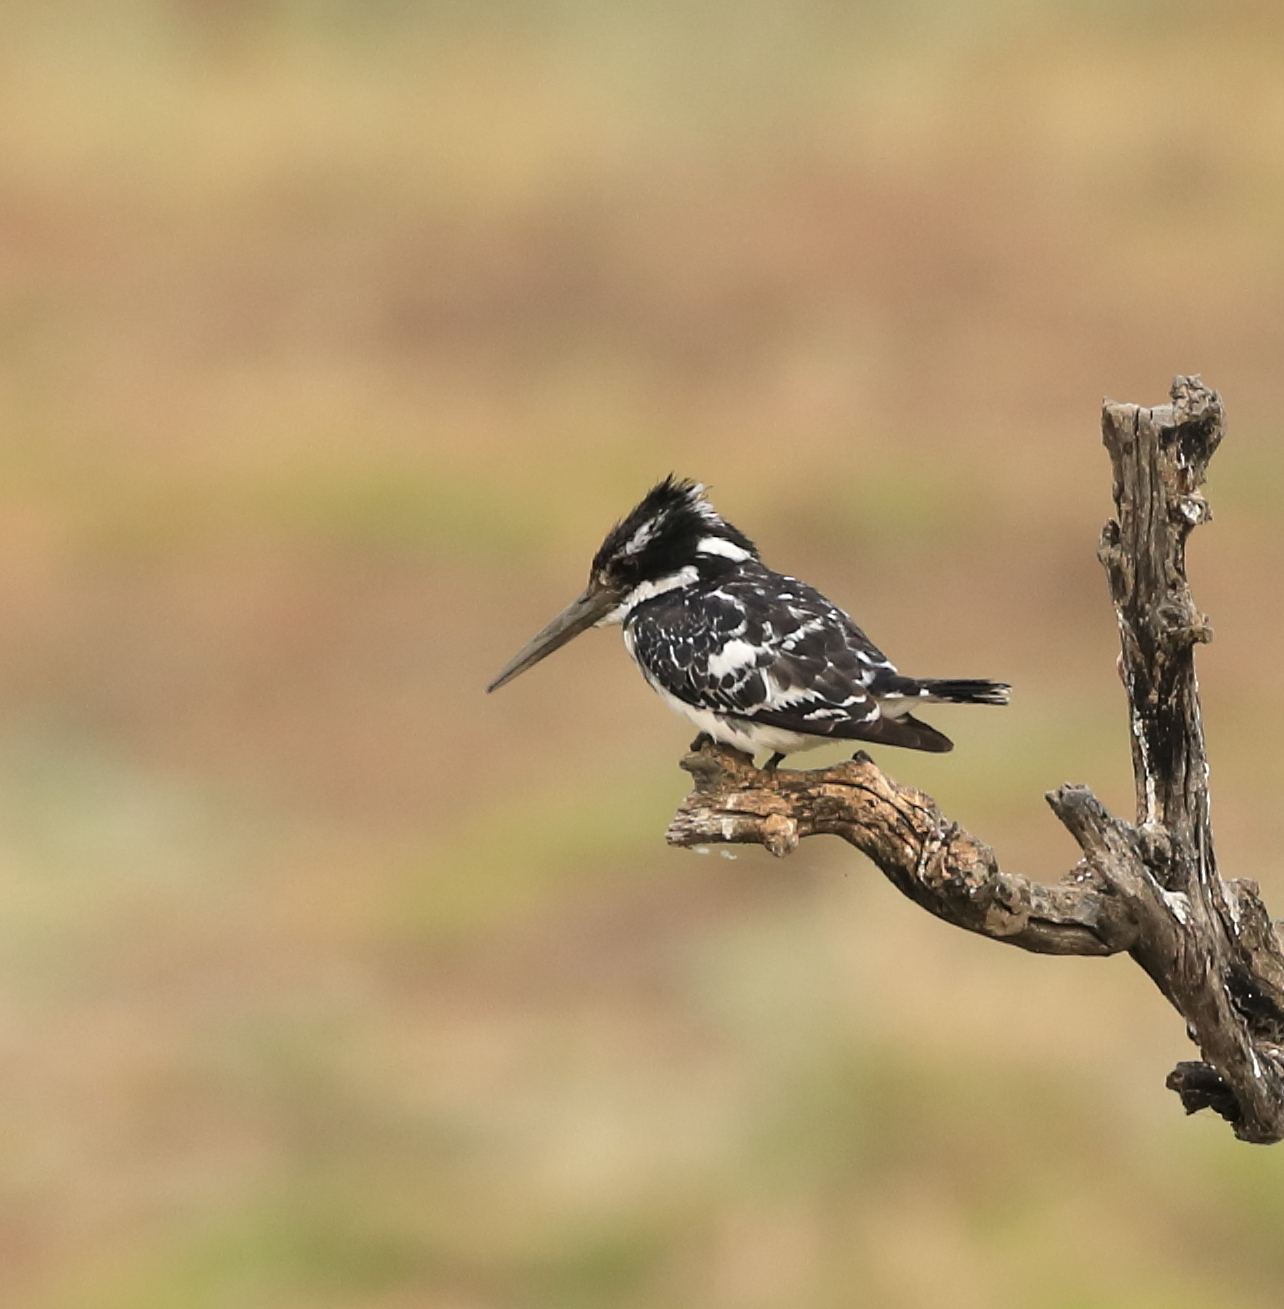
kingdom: Animalia
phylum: Chordata
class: Aves
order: Coraciiformes
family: Alcedinidae
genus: Ceryle
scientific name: Ceryle rudis
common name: Pied kingfisher
